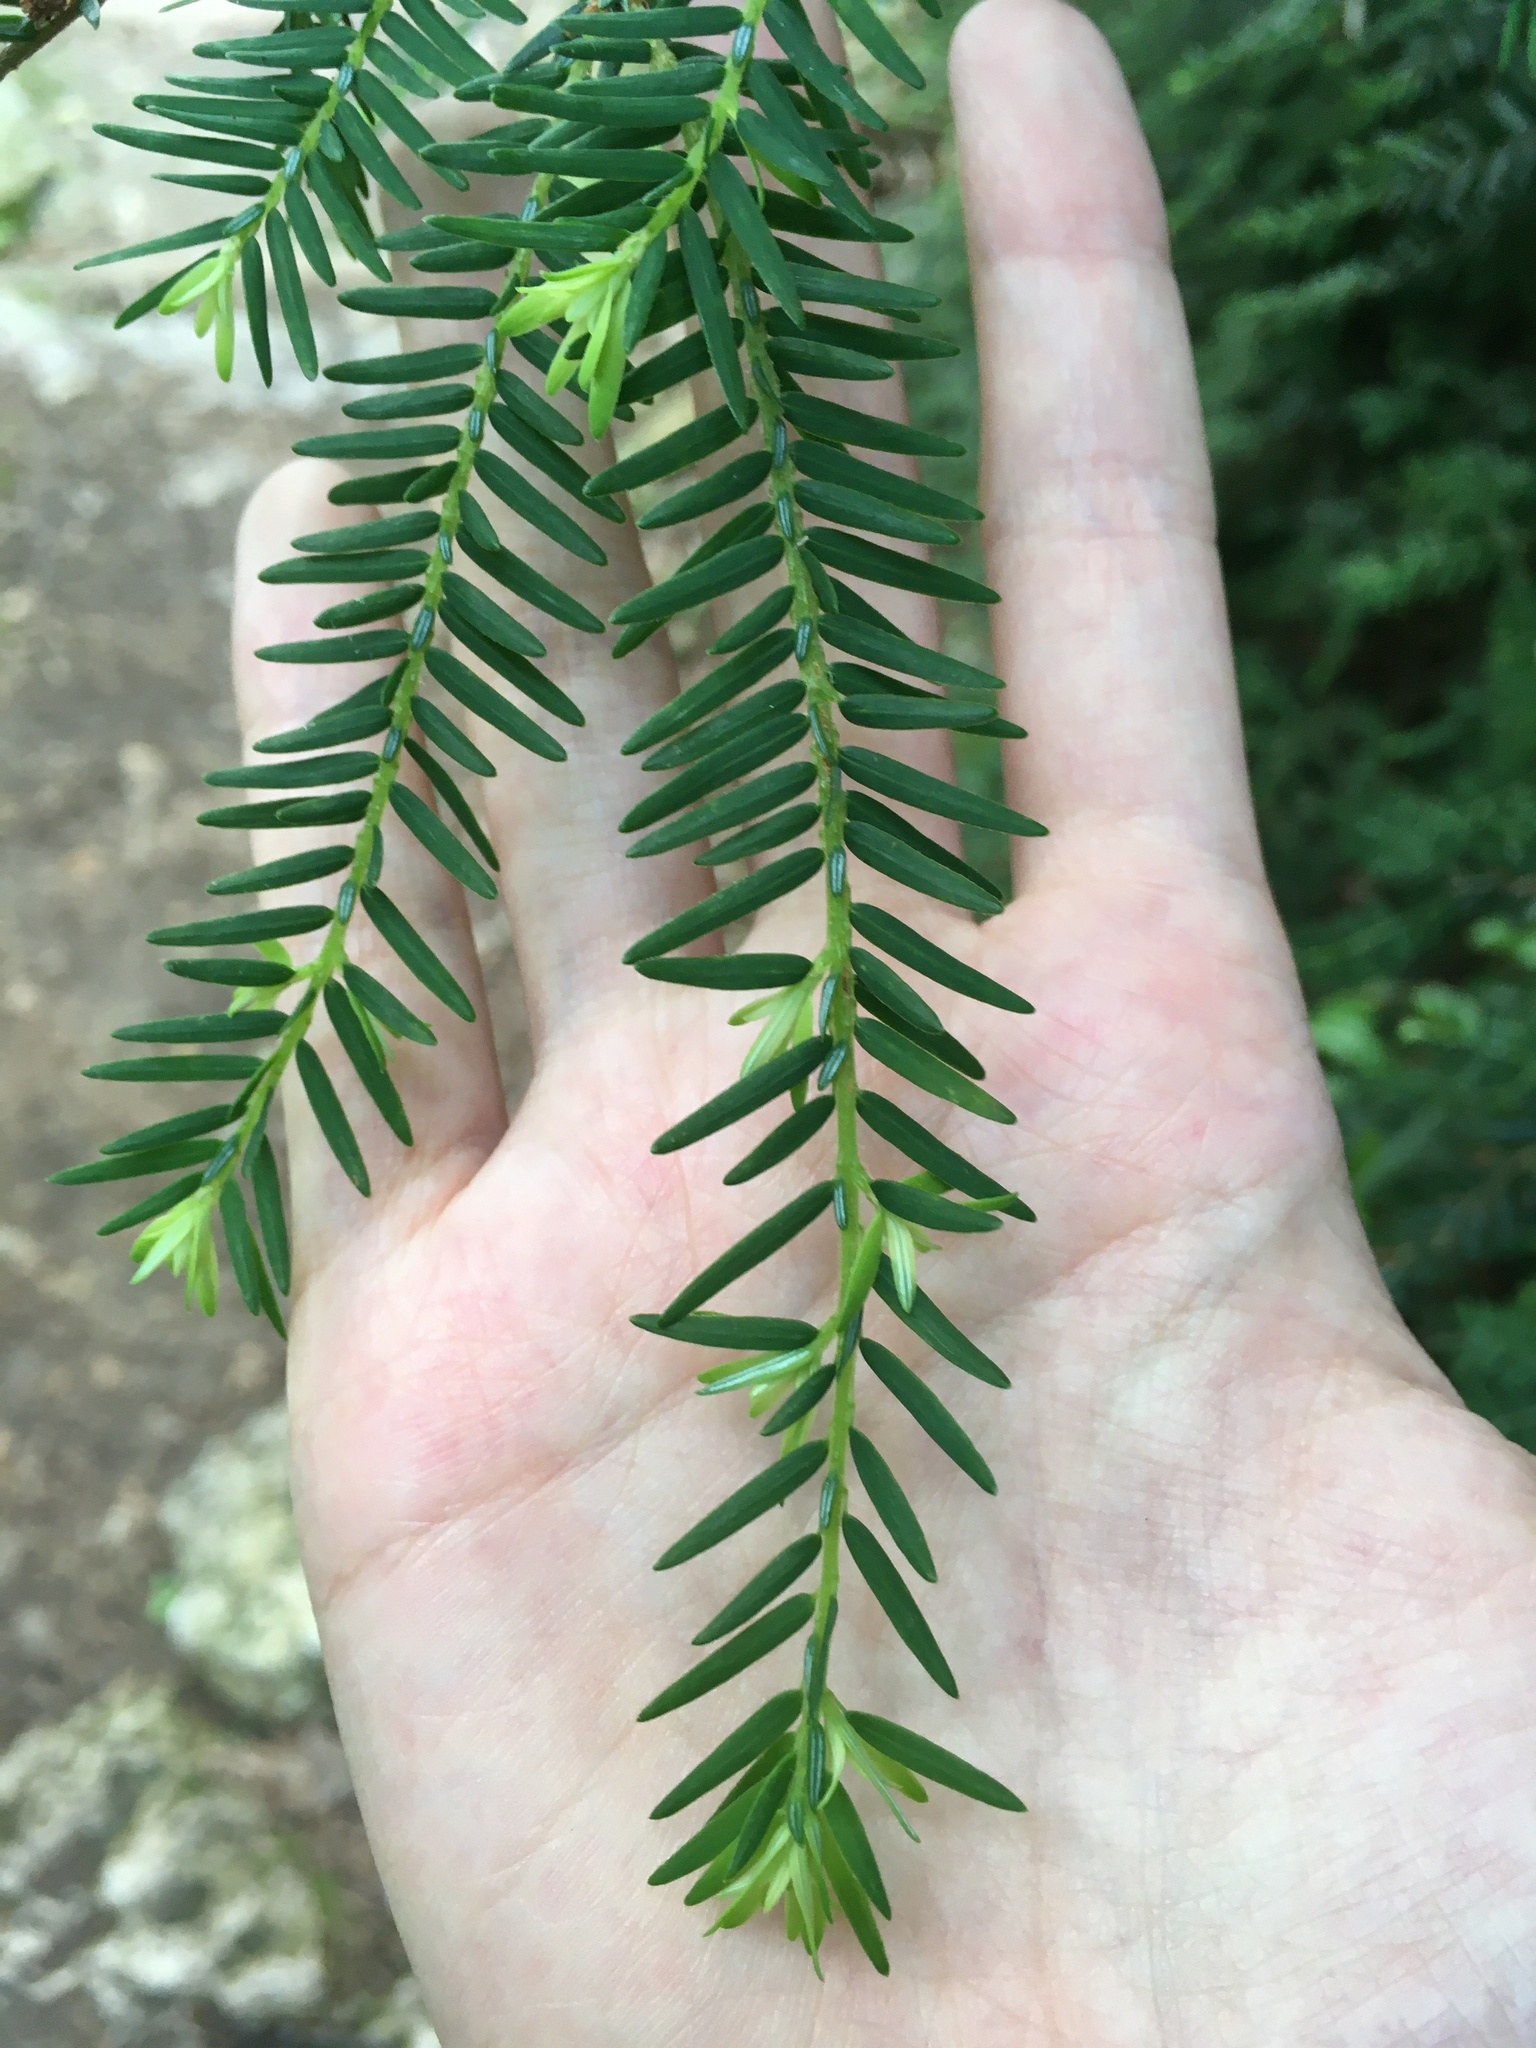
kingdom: Plantae
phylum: Tracheophyta
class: Pinopsida
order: Pinales
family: Pinaceae
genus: Tsuga
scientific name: Tsuga canadensis
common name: Eastern hemlock
